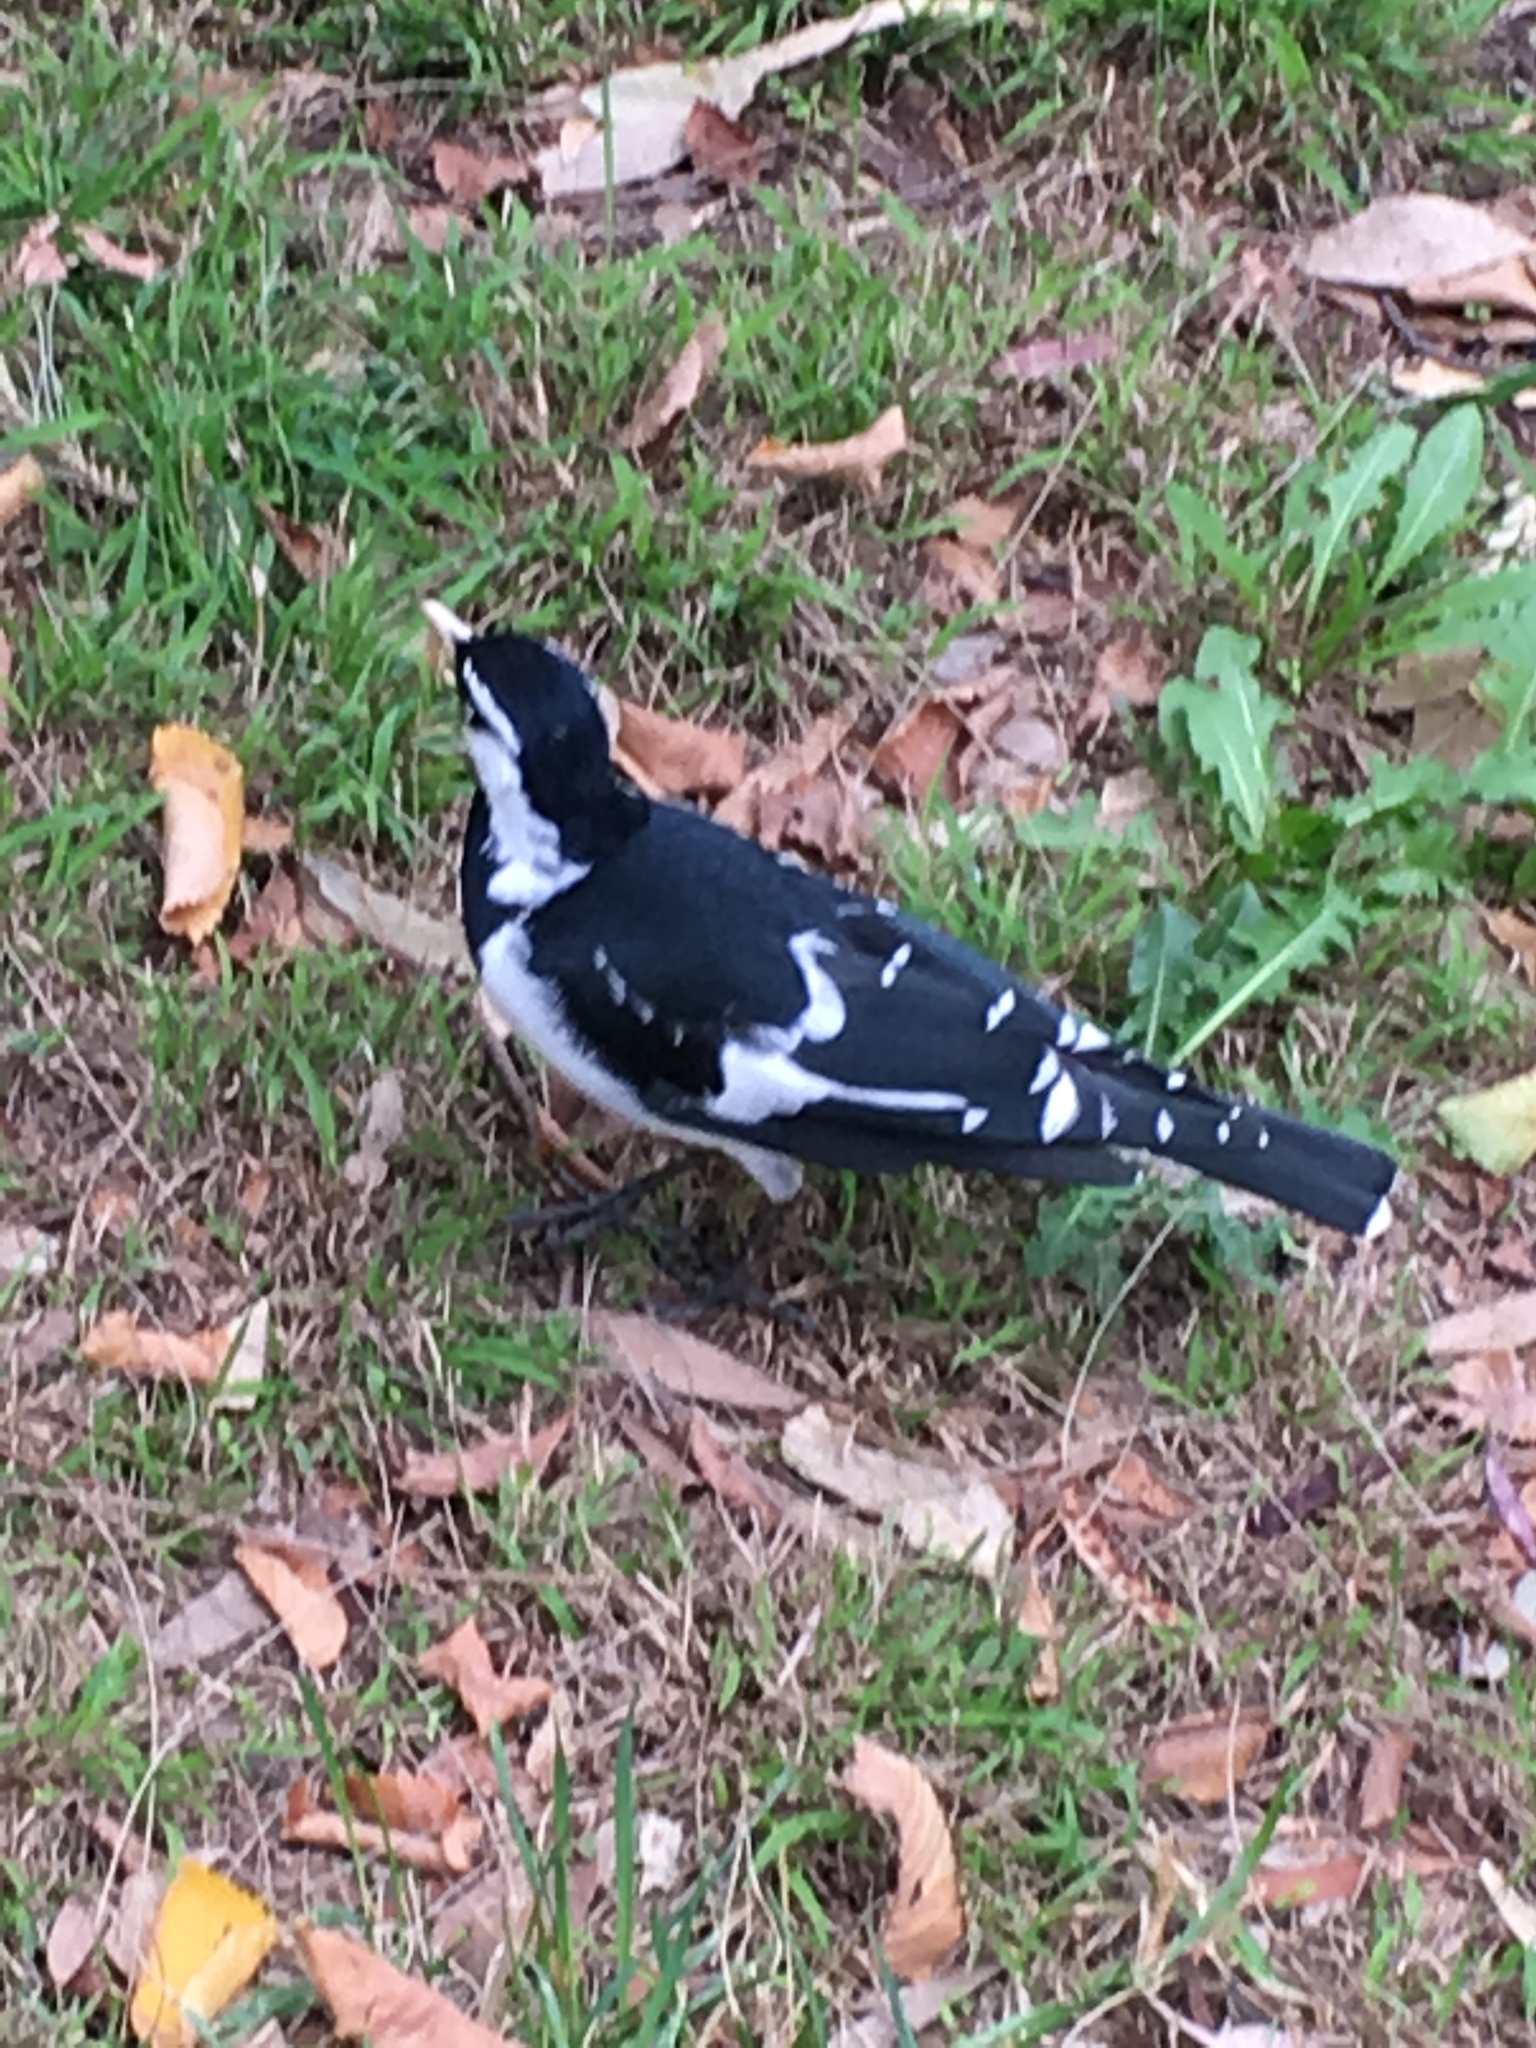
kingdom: Animalia
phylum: Chordata
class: Aves
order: Passeriformes
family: Monarchidae
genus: Grallina
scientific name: Grallina cyanoleuca
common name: Magpie-lark
